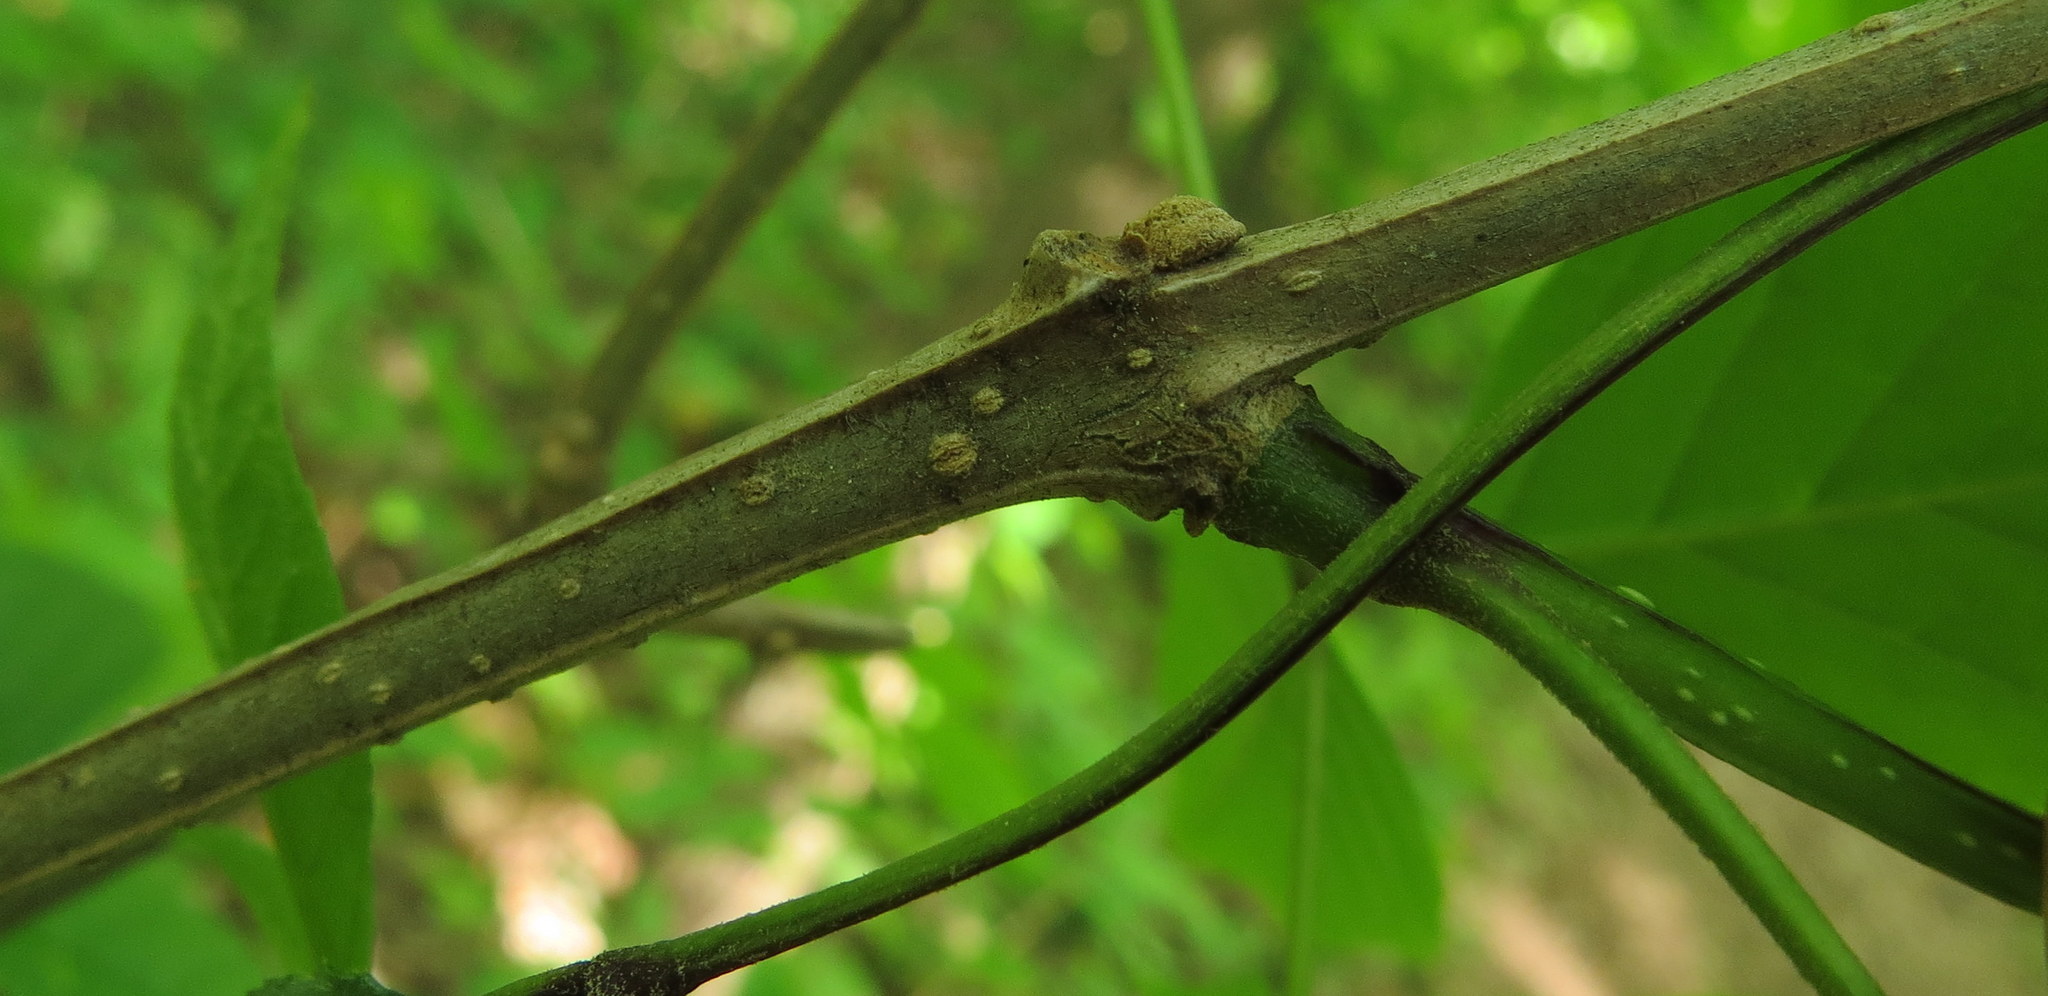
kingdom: Plantae
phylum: Tracheophyta
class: Magnoliopsida
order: Lamiales
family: Oleaceae
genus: Fraxinus
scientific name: Fraxinus quadrangulata
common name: Blue ash
